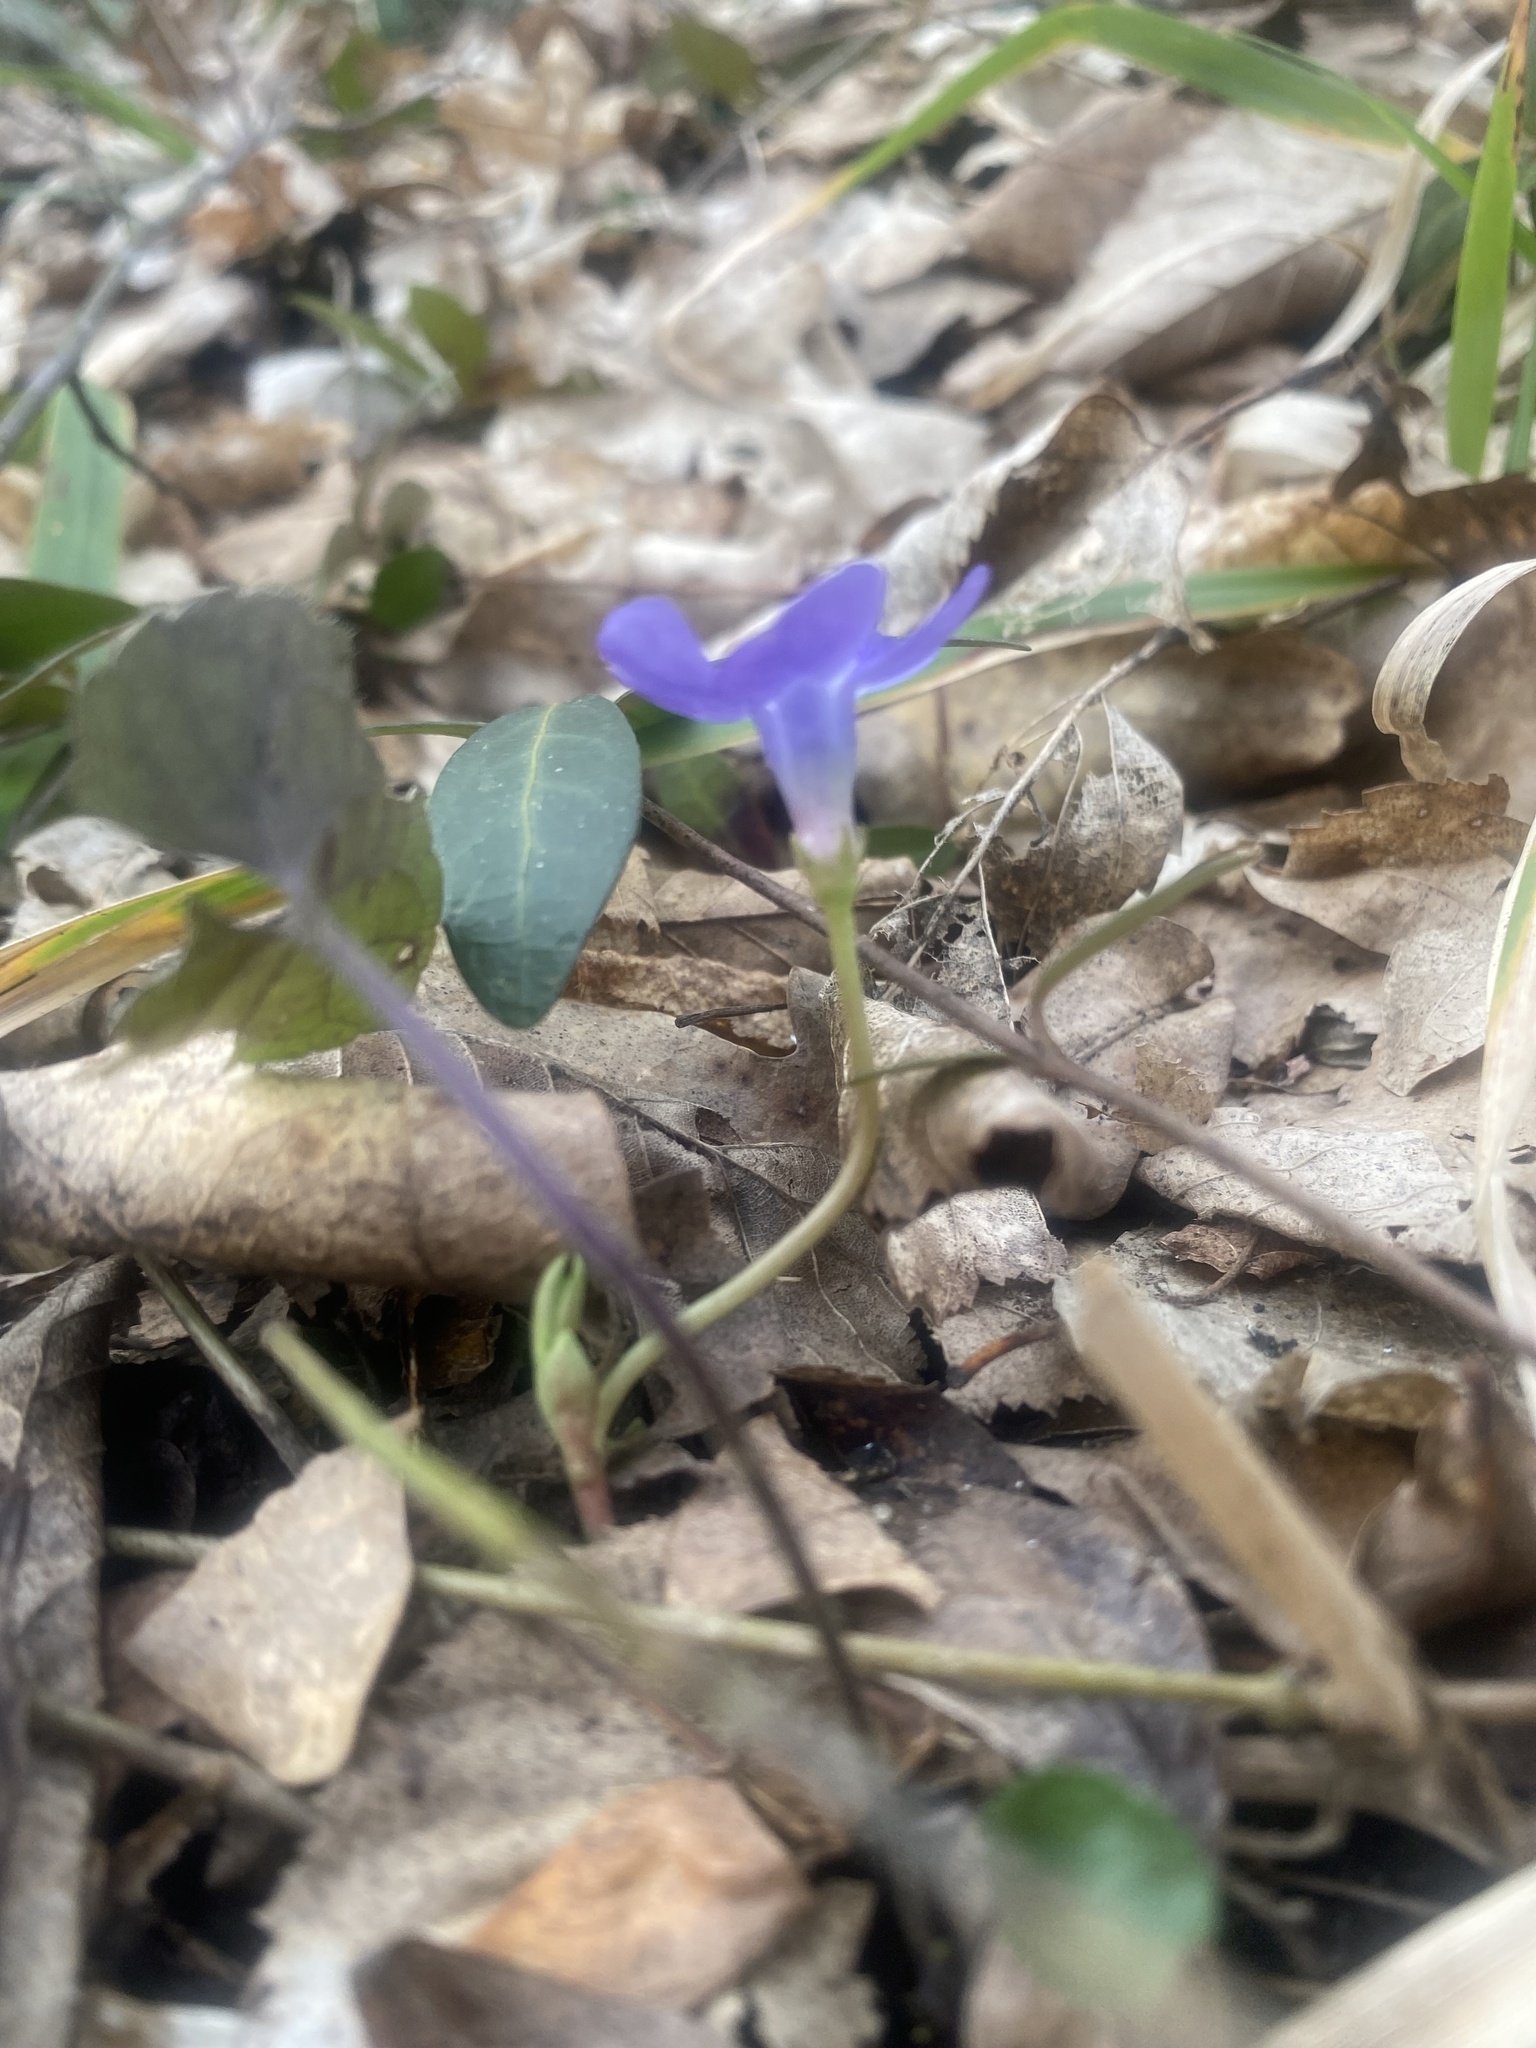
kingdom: Plantae
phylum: Tracheophyta
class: Magnoliopsida
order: Gentianales
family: Apocynaceae
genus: Vinca
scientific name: Vinca minor
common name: Lesser periwinkle
